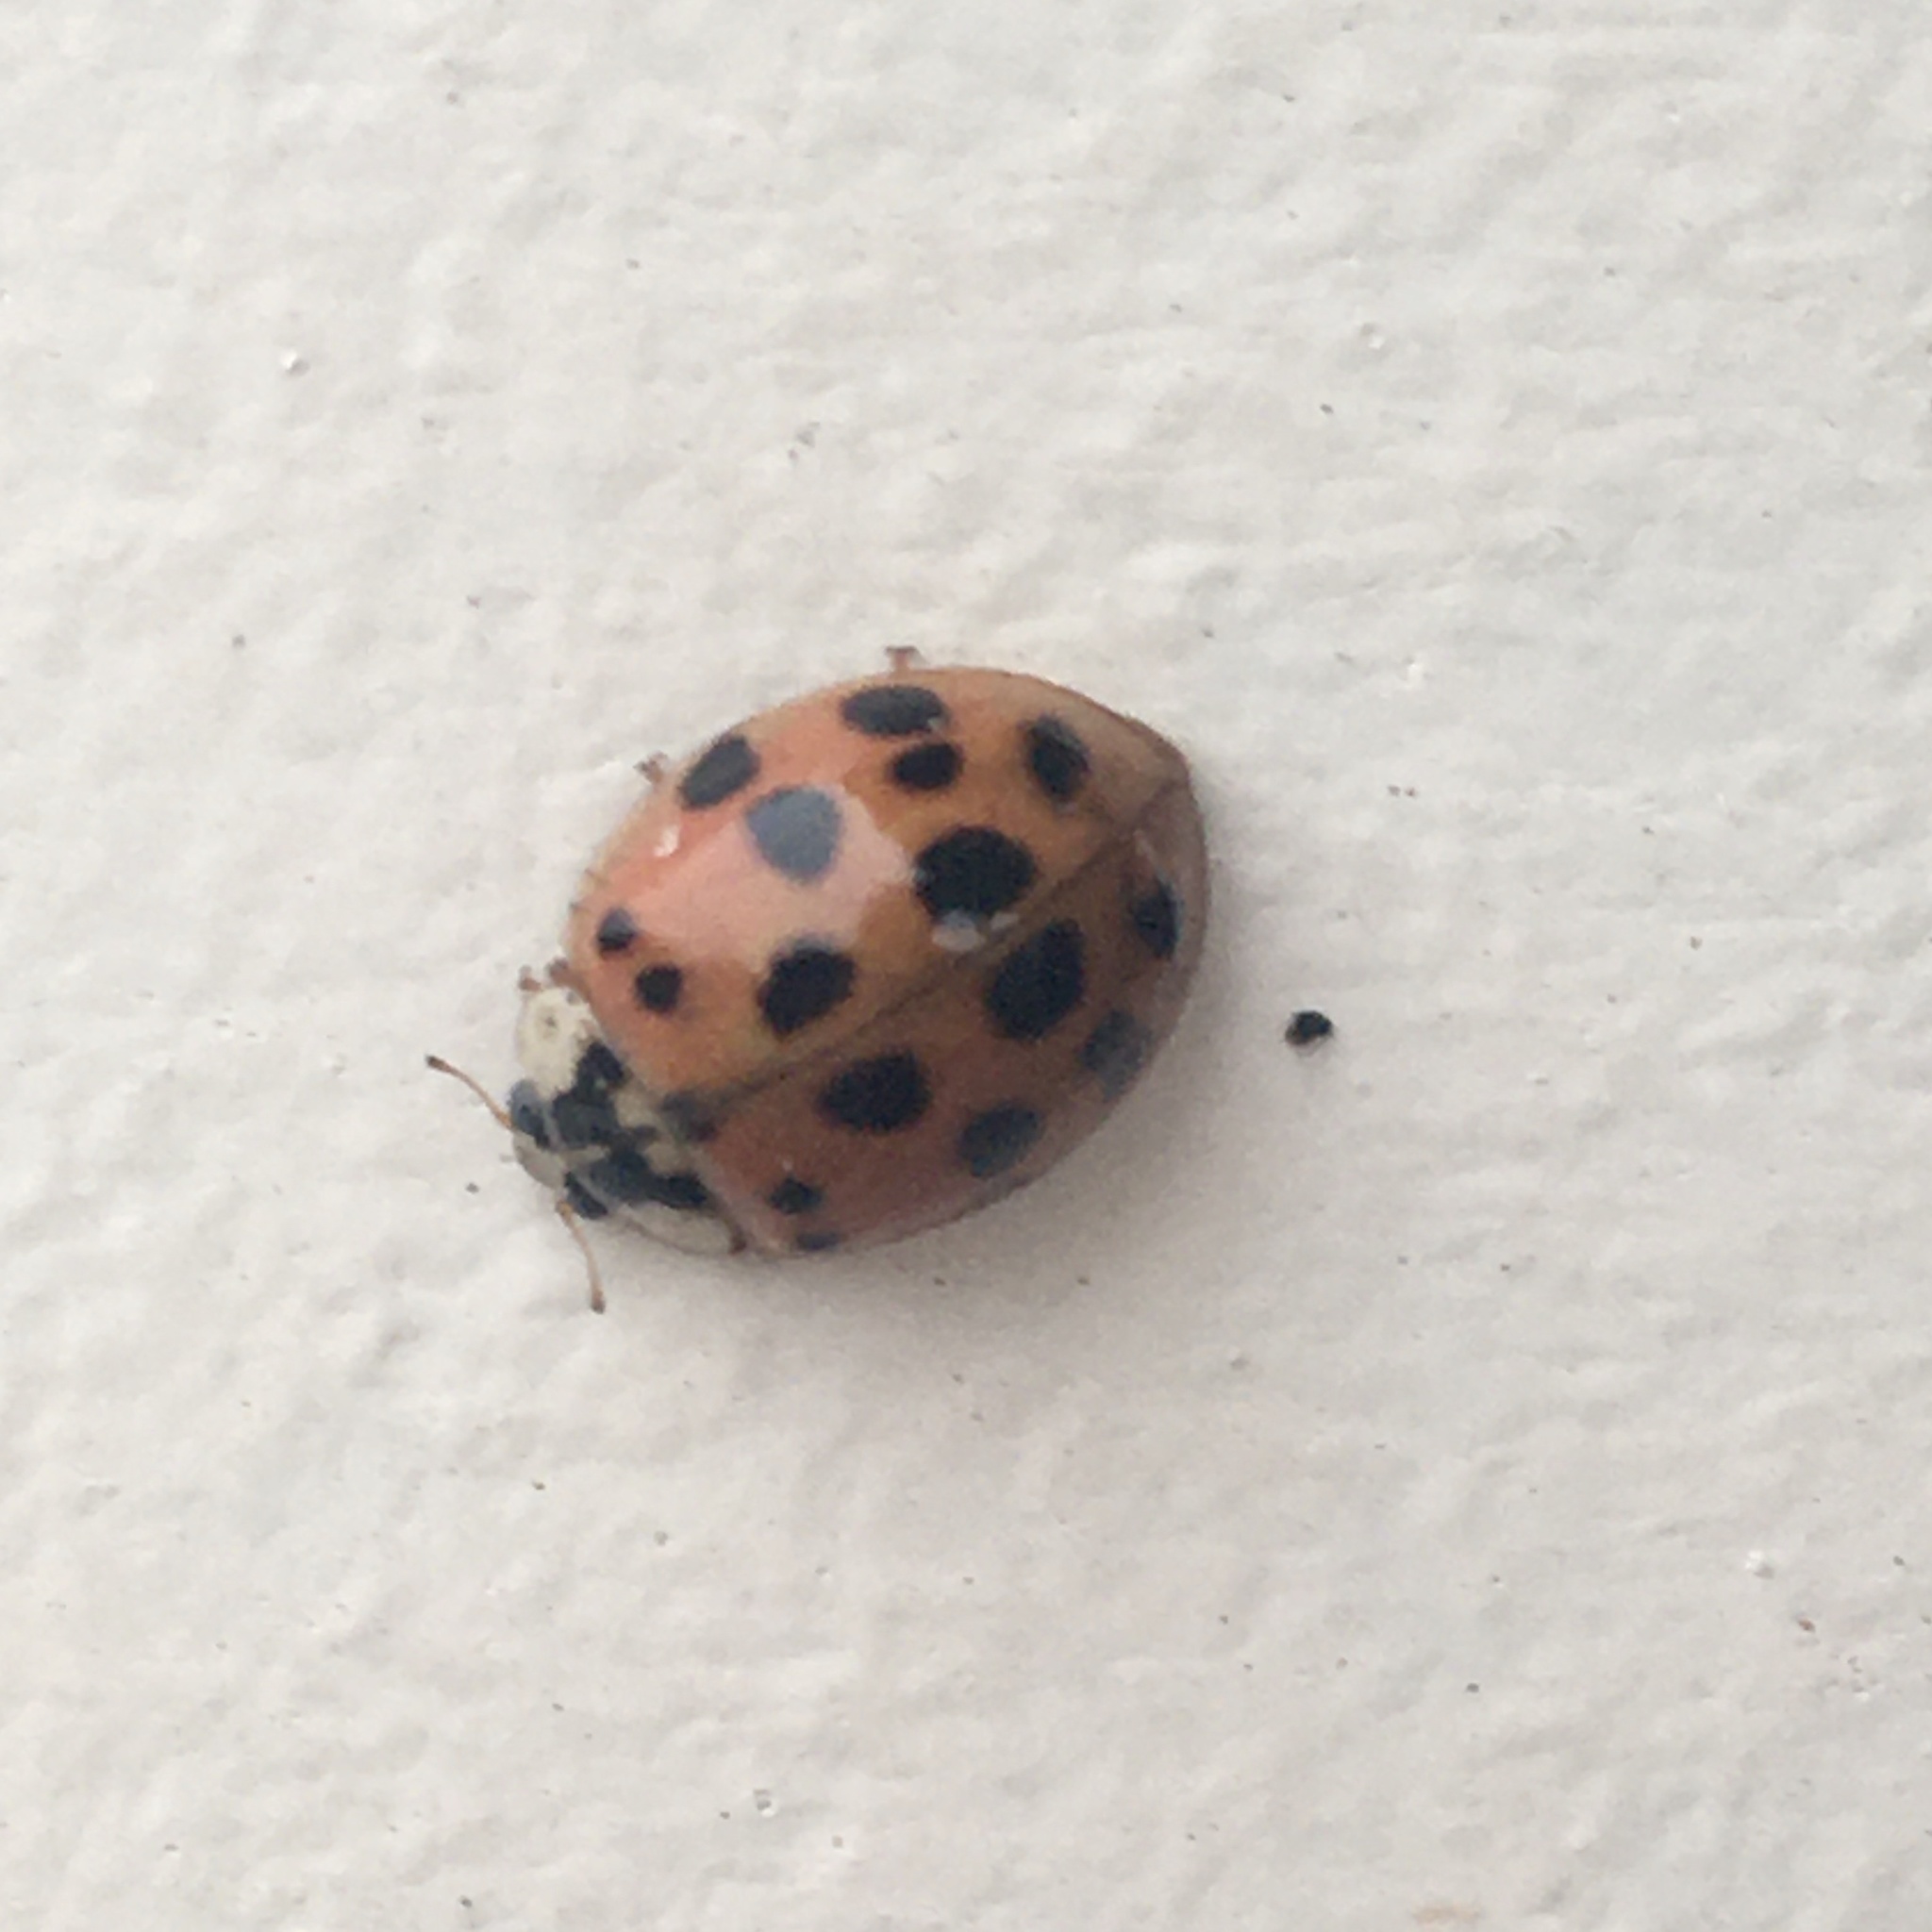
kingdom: Animalia
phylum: Arthropoda
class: Insecta
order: Coleoptera
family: Coccinellidae
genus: Harmonia
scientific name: Harmonia axyridis
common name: Harlequin ladybird
